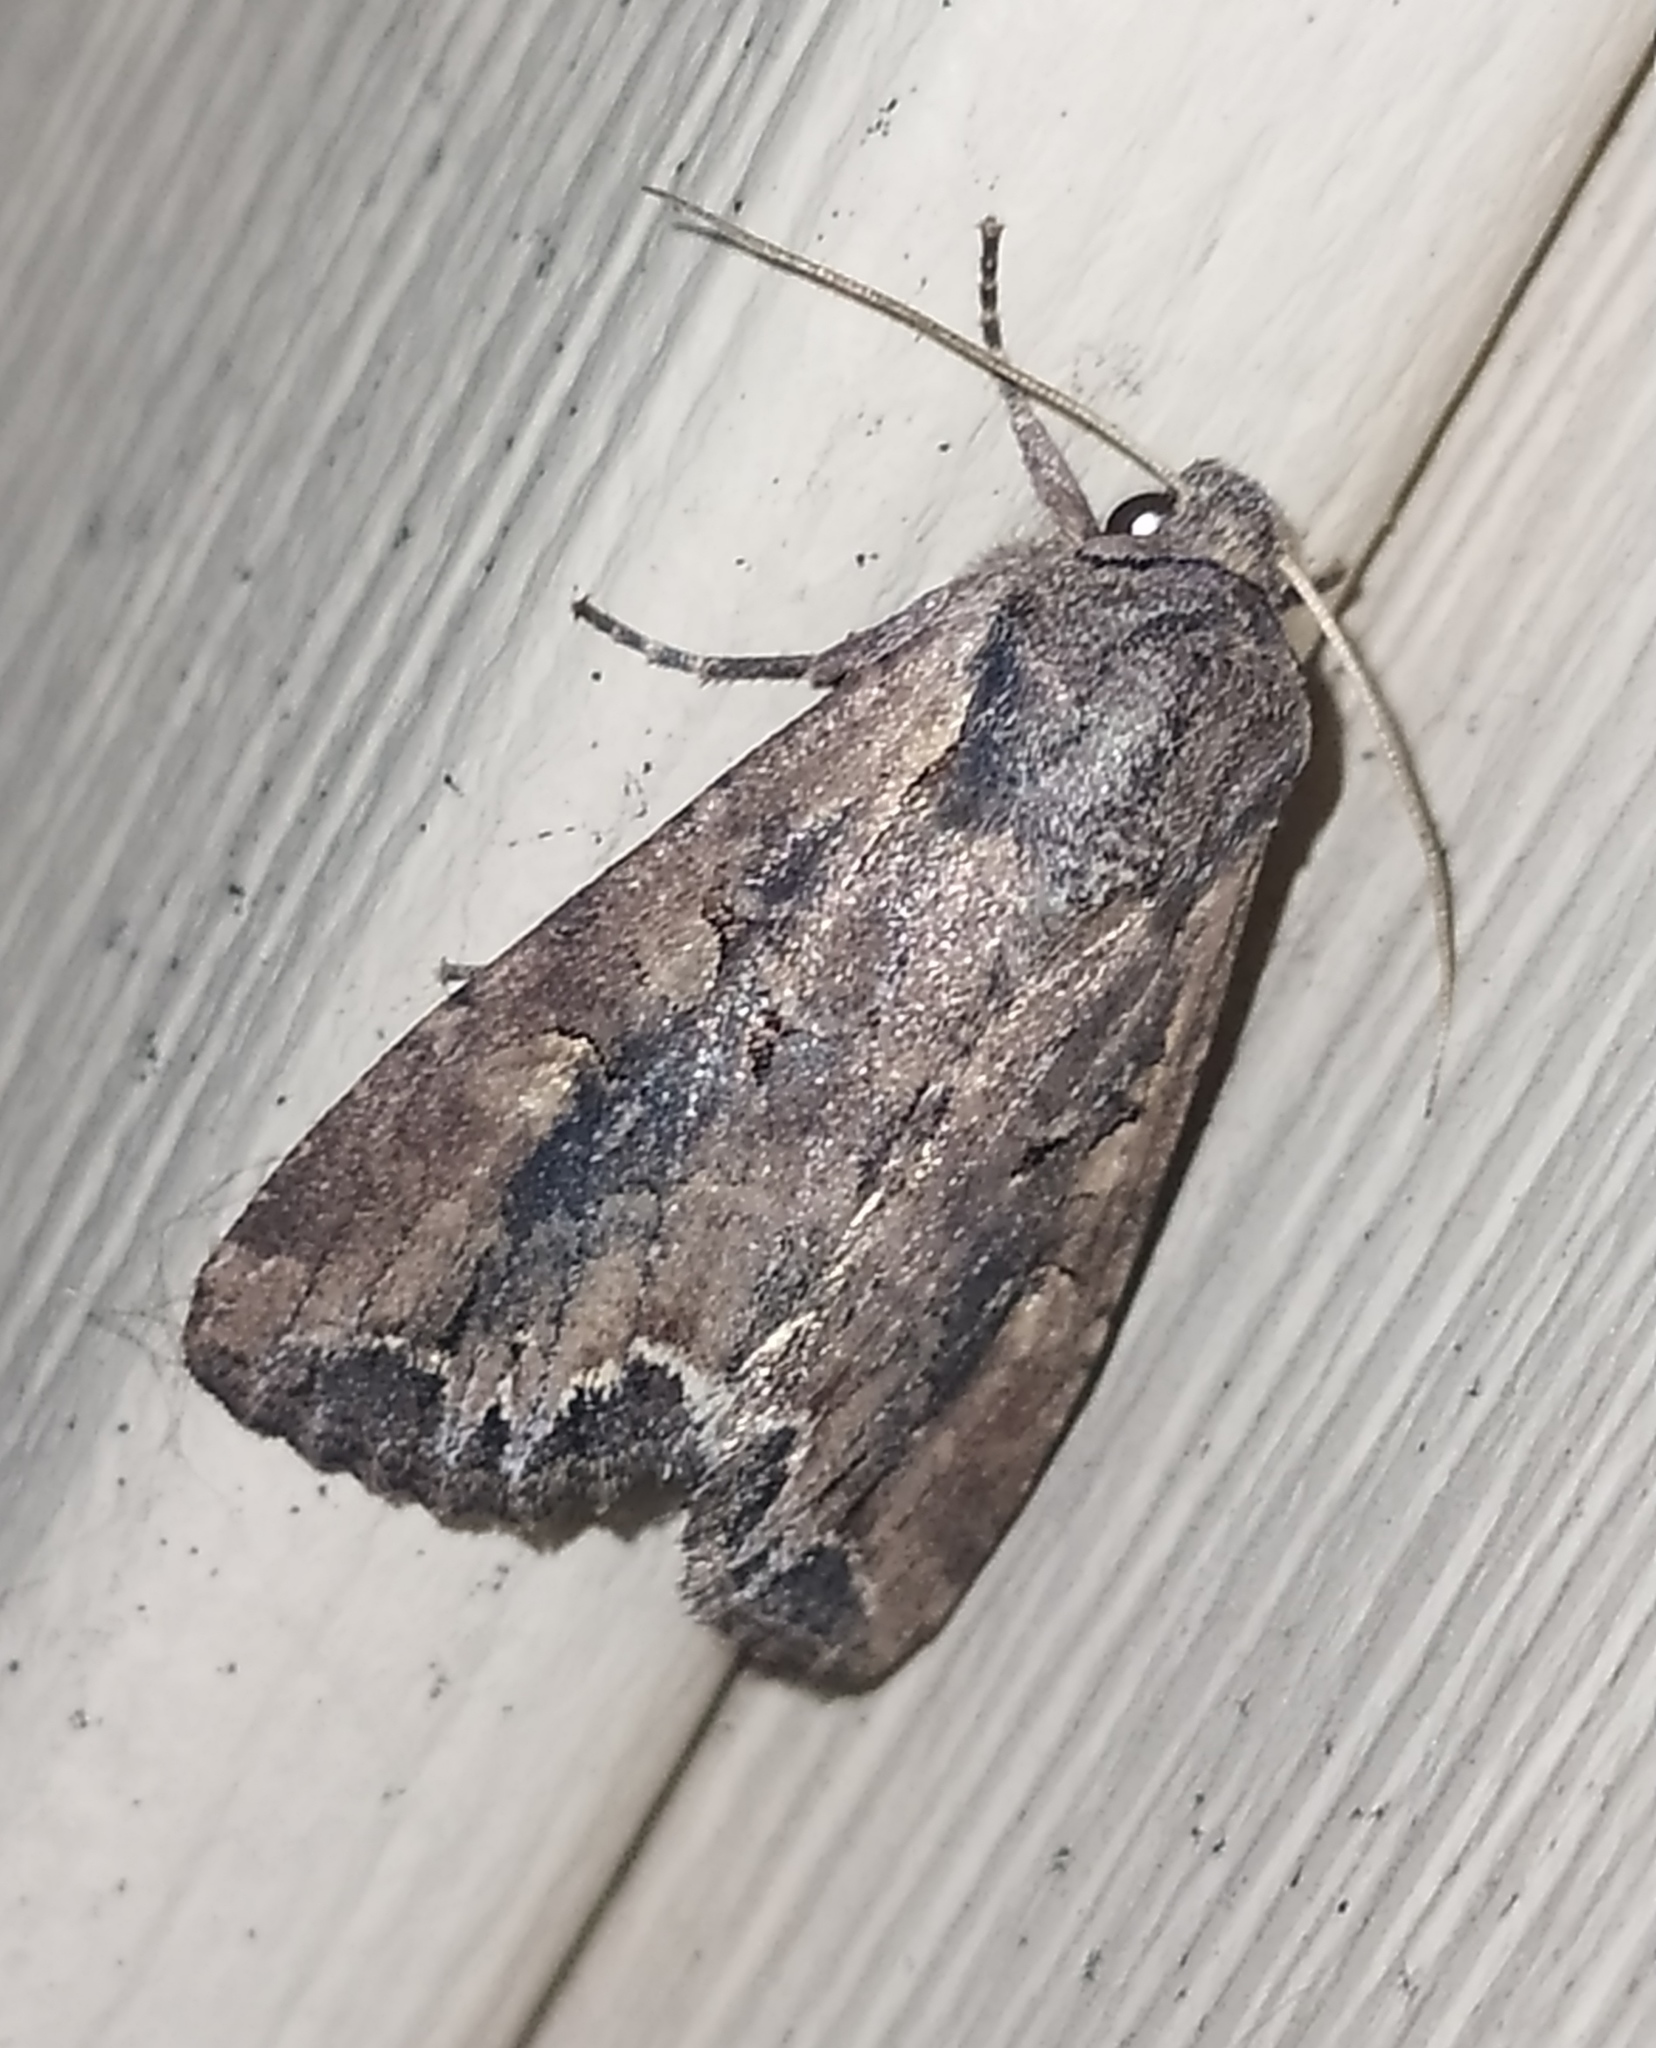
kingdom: Animalia
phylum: Arthropoda
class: Insecta
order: Lepidoptera
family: Noctuidae
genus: Lacanobia
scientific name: Lacanobia suasa
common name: Dog's tooth
